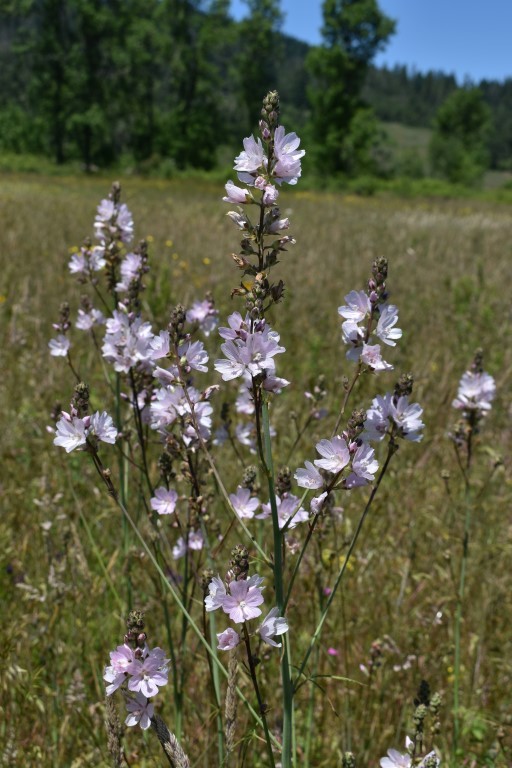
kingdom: Plantae
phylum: Tracheophyta
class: Magnoliopsida
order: Malvales
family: Malvaceae
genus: Sidalcea
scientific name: Sidalcea campestris
